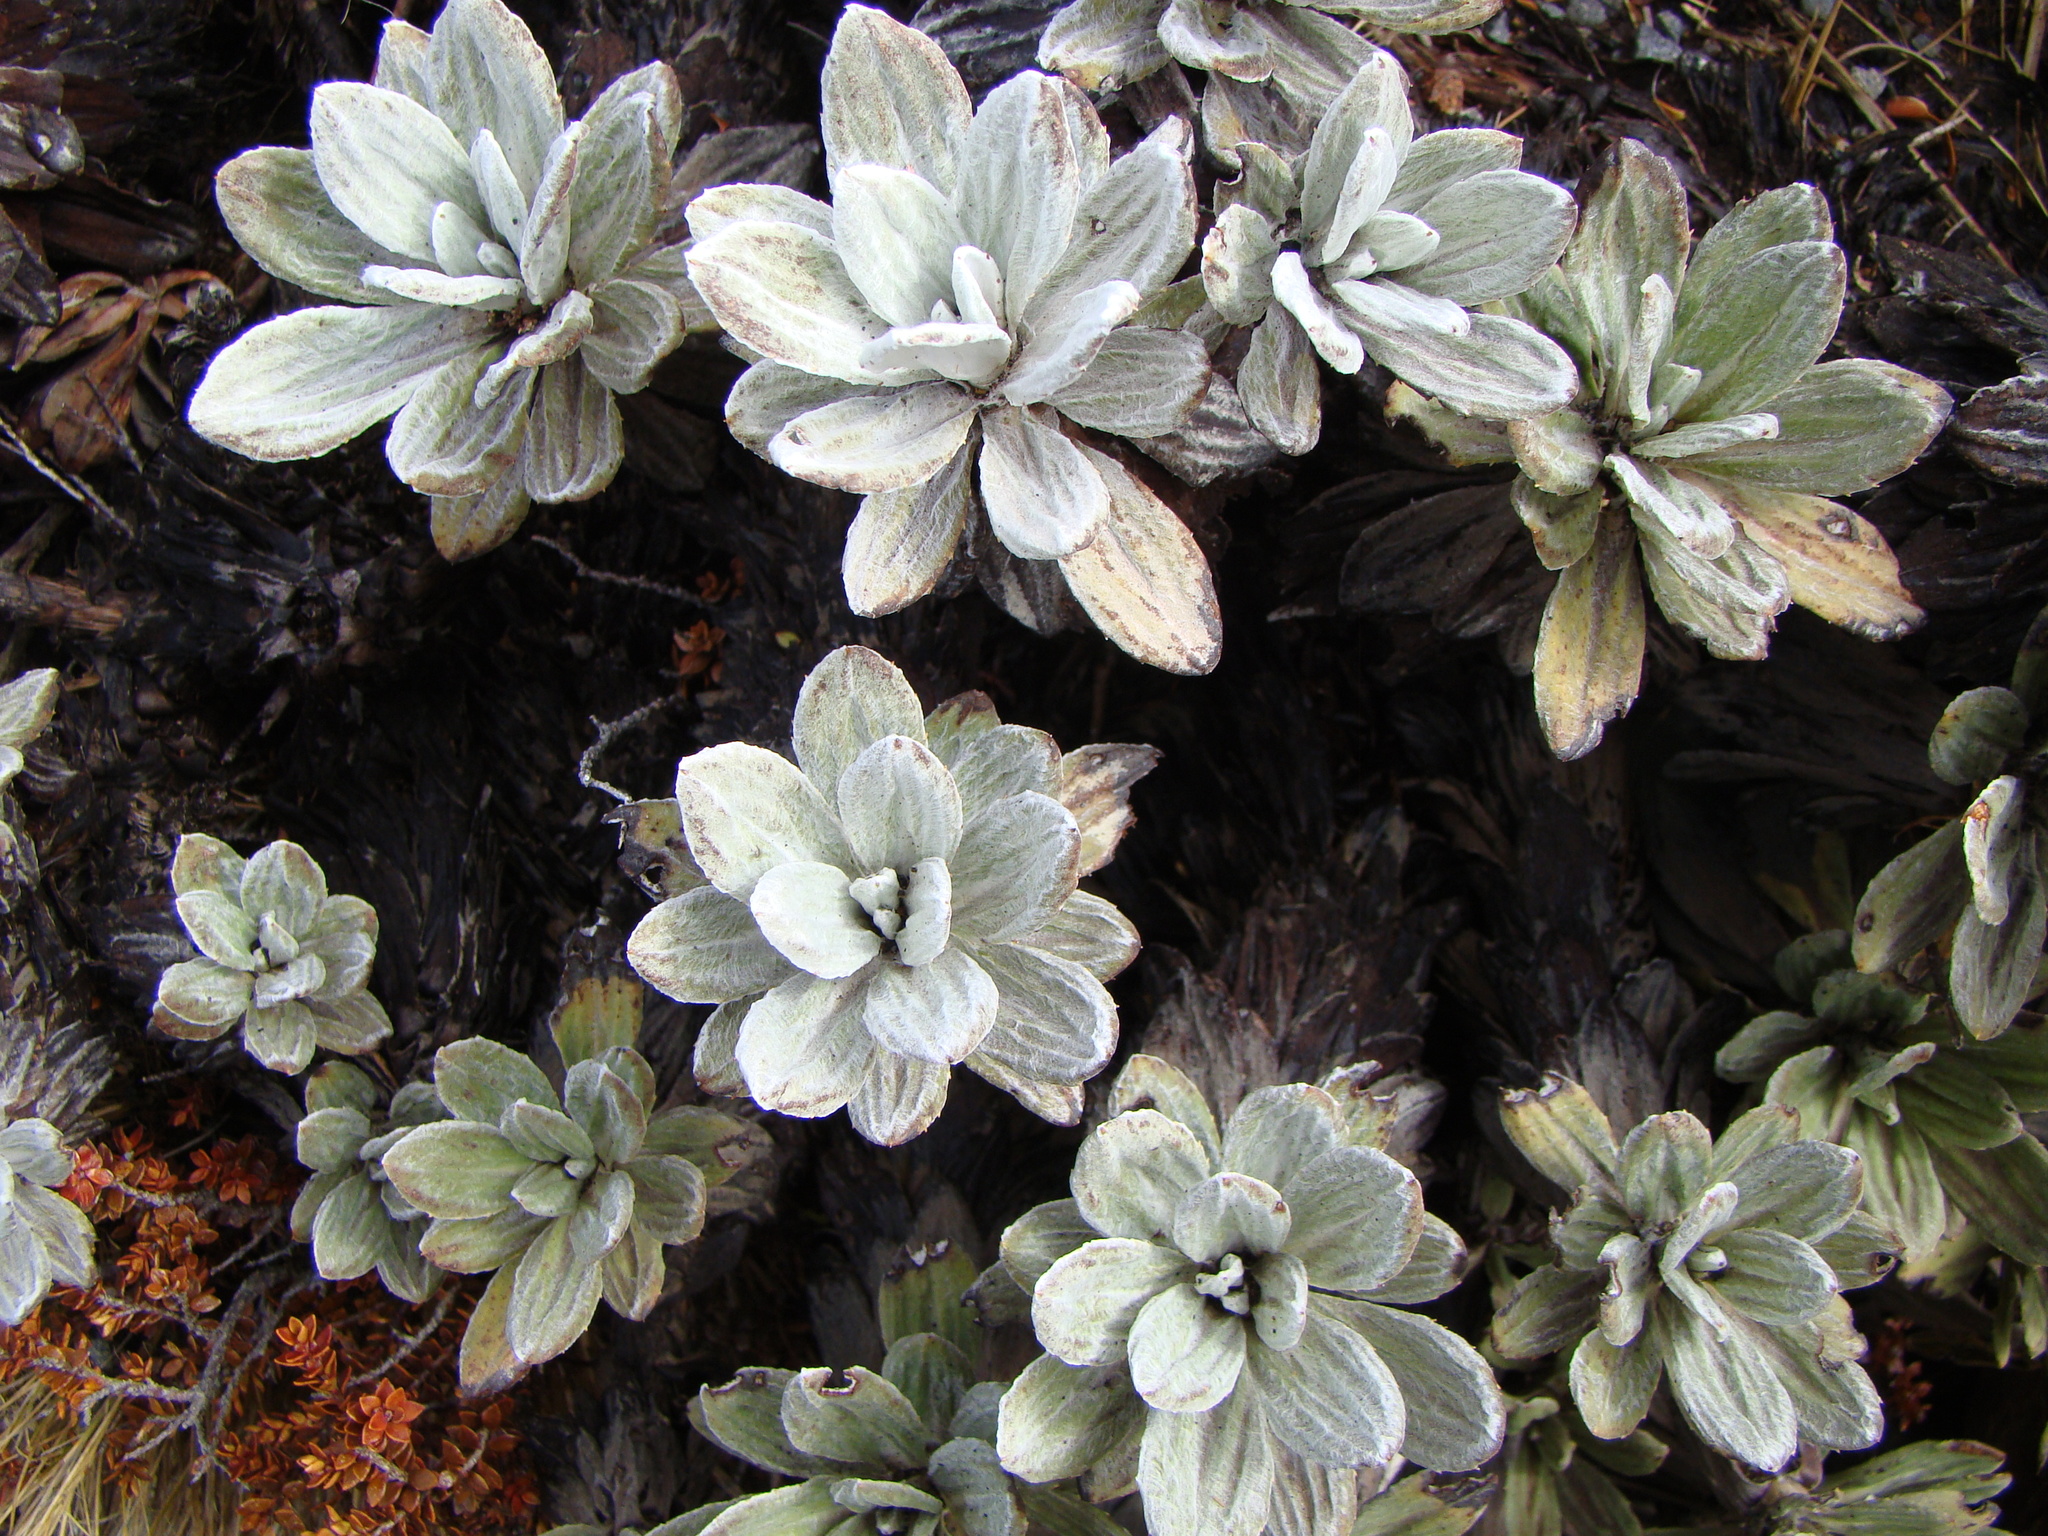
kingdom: Plantae
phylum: Tracheophyta
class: Magnoliopsida
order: Asterales
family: Asteraceae
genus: Celmisia
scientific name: Celmisia incana
